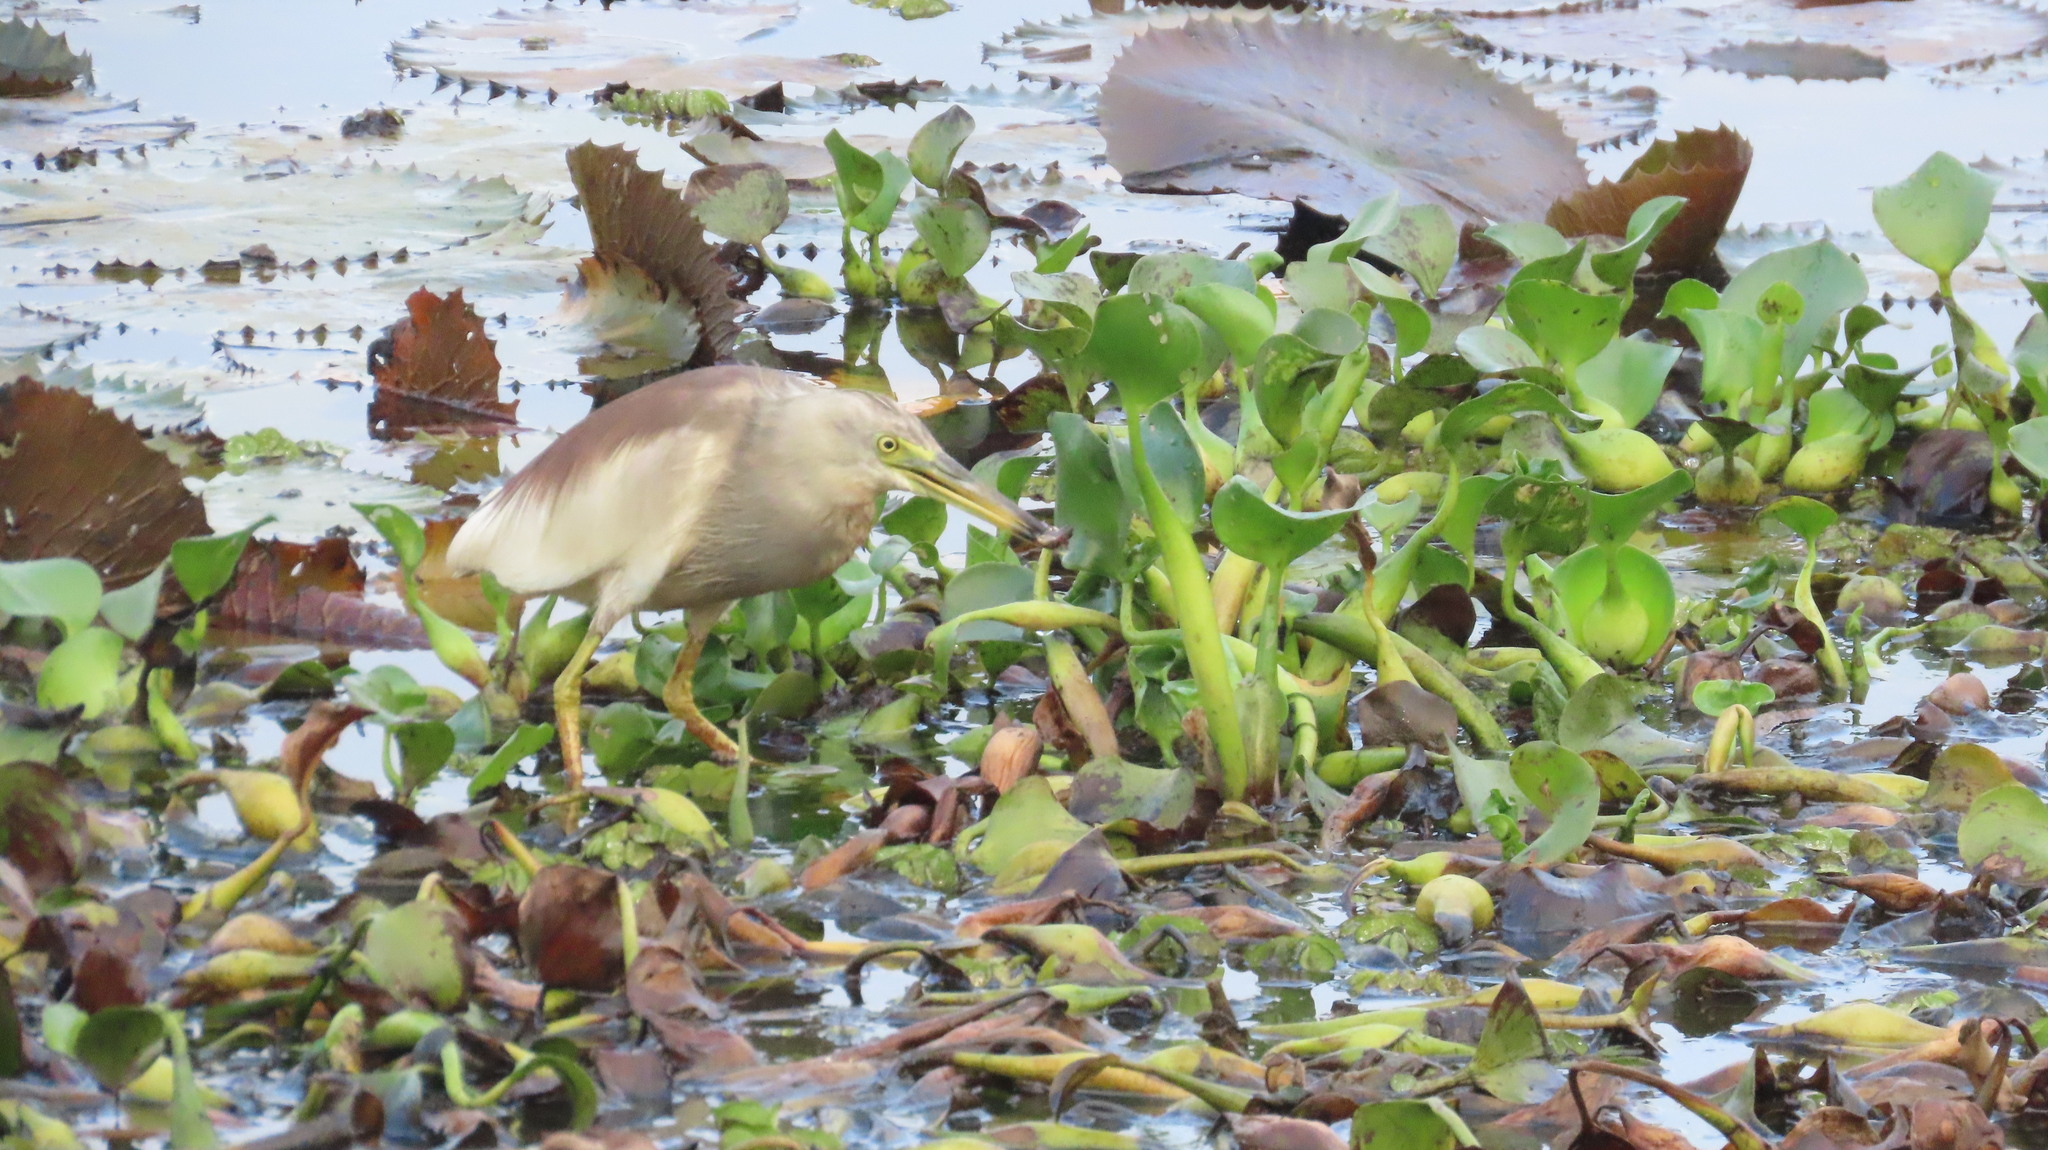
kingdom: Animalia
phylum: Chordata
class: Aves
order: Pelecaniformes
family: Ardeidae
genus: Ardeola
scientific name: Ardeola grayii
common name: Indian pond heron
